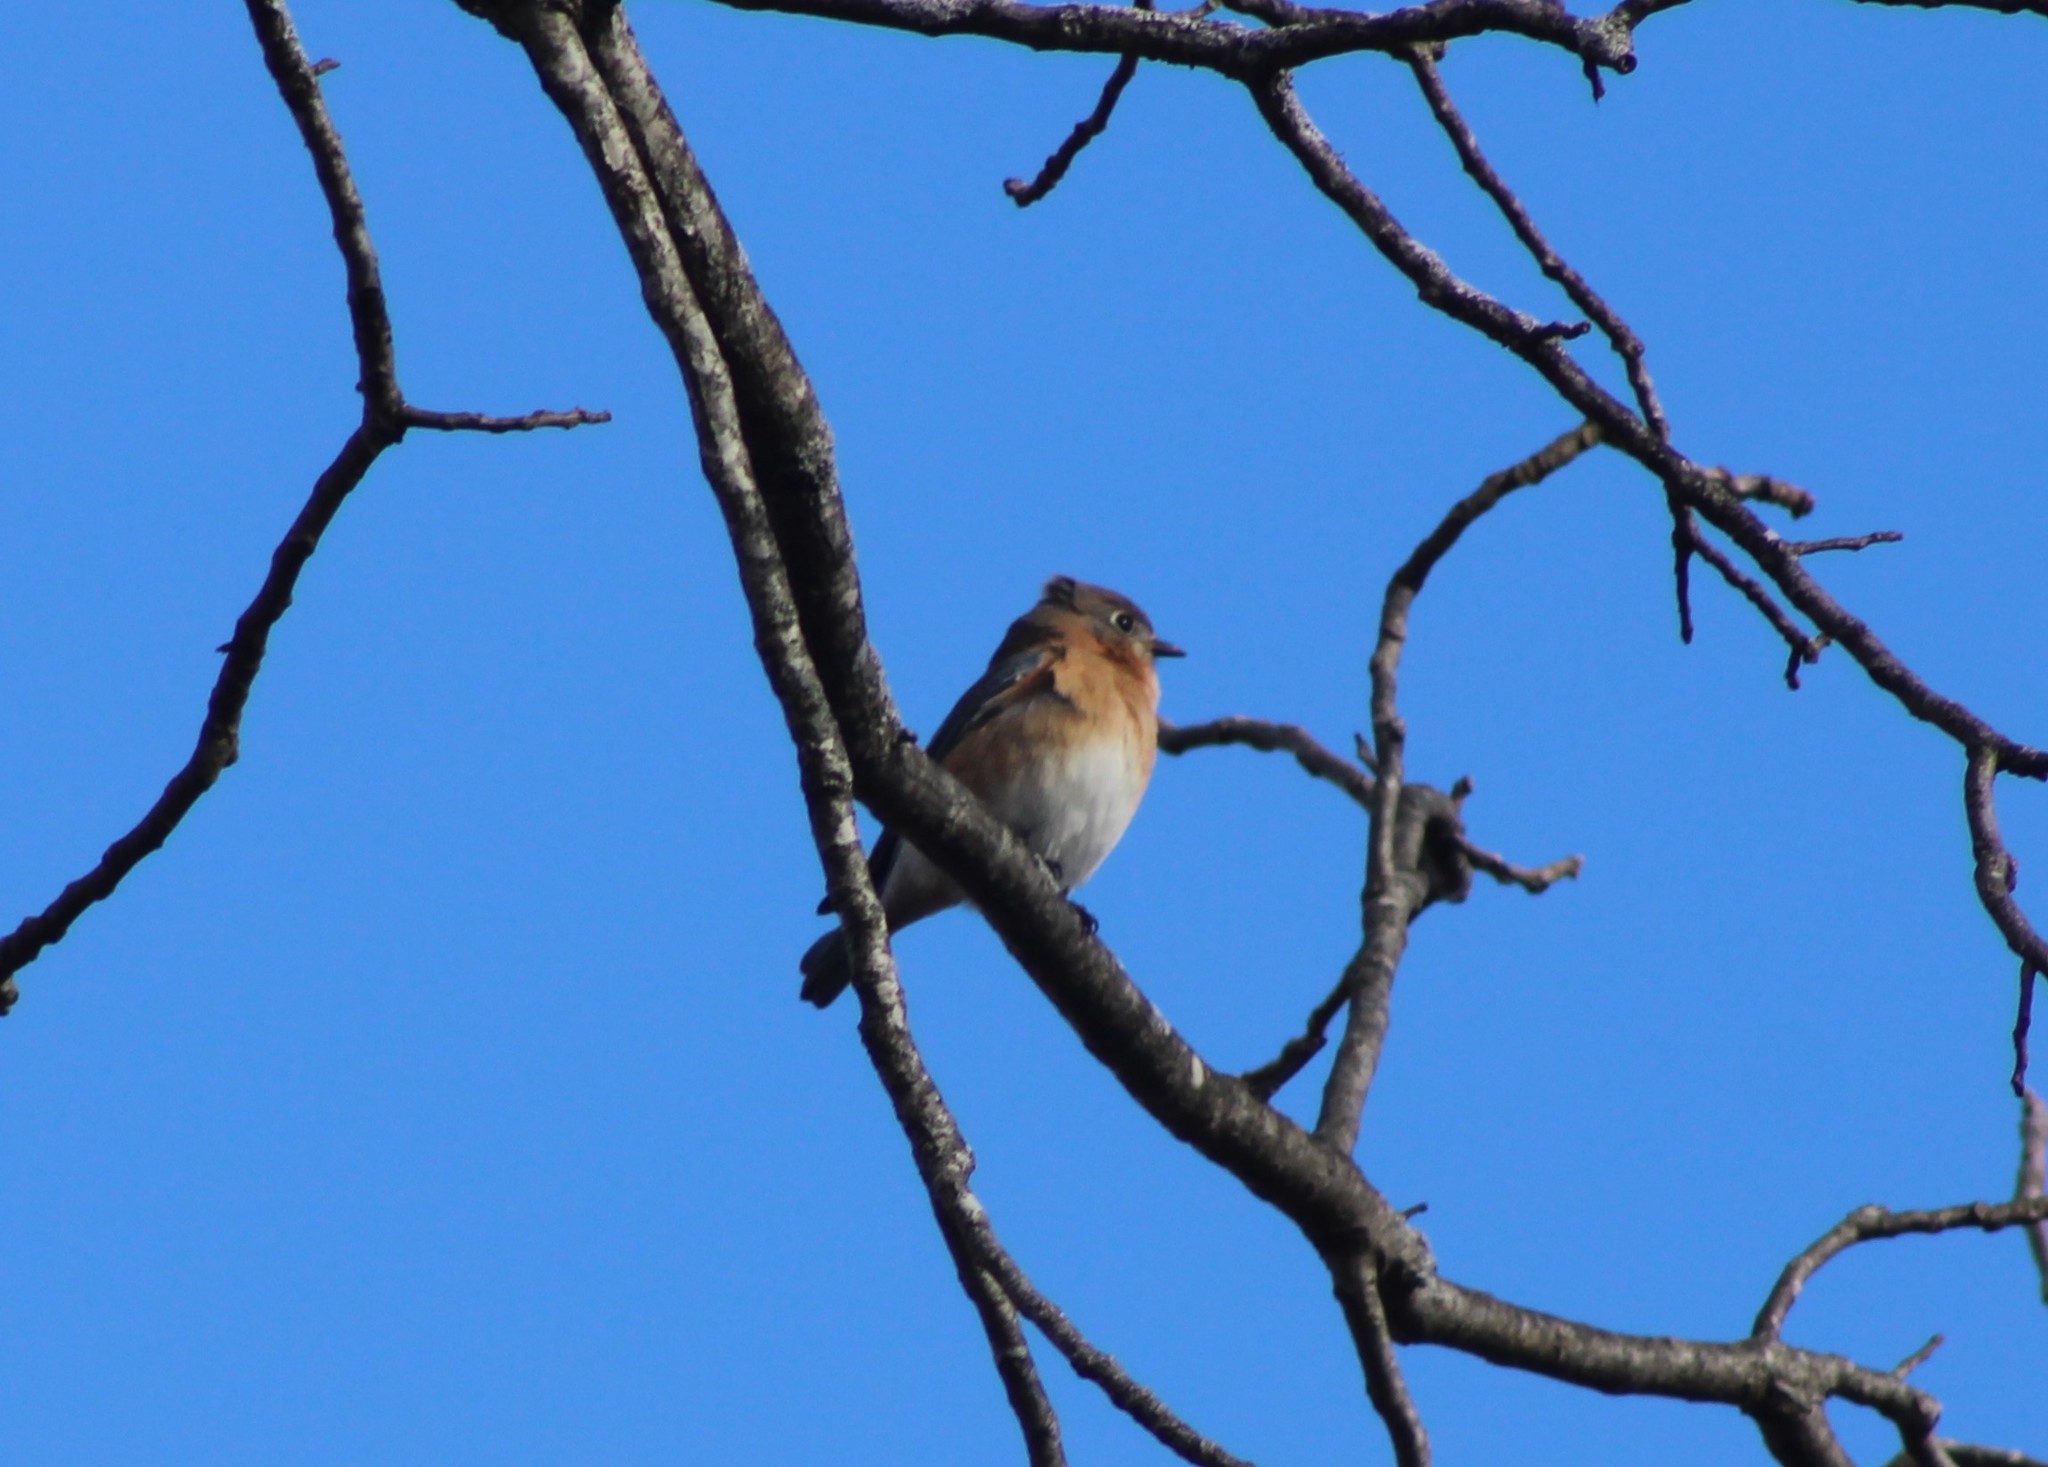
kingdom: Animalia
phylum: Chordata
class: Aves
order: Passeriformes
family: Turdidae
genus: Sialia
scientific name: Sialia sialis
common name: Eastern bluebird
